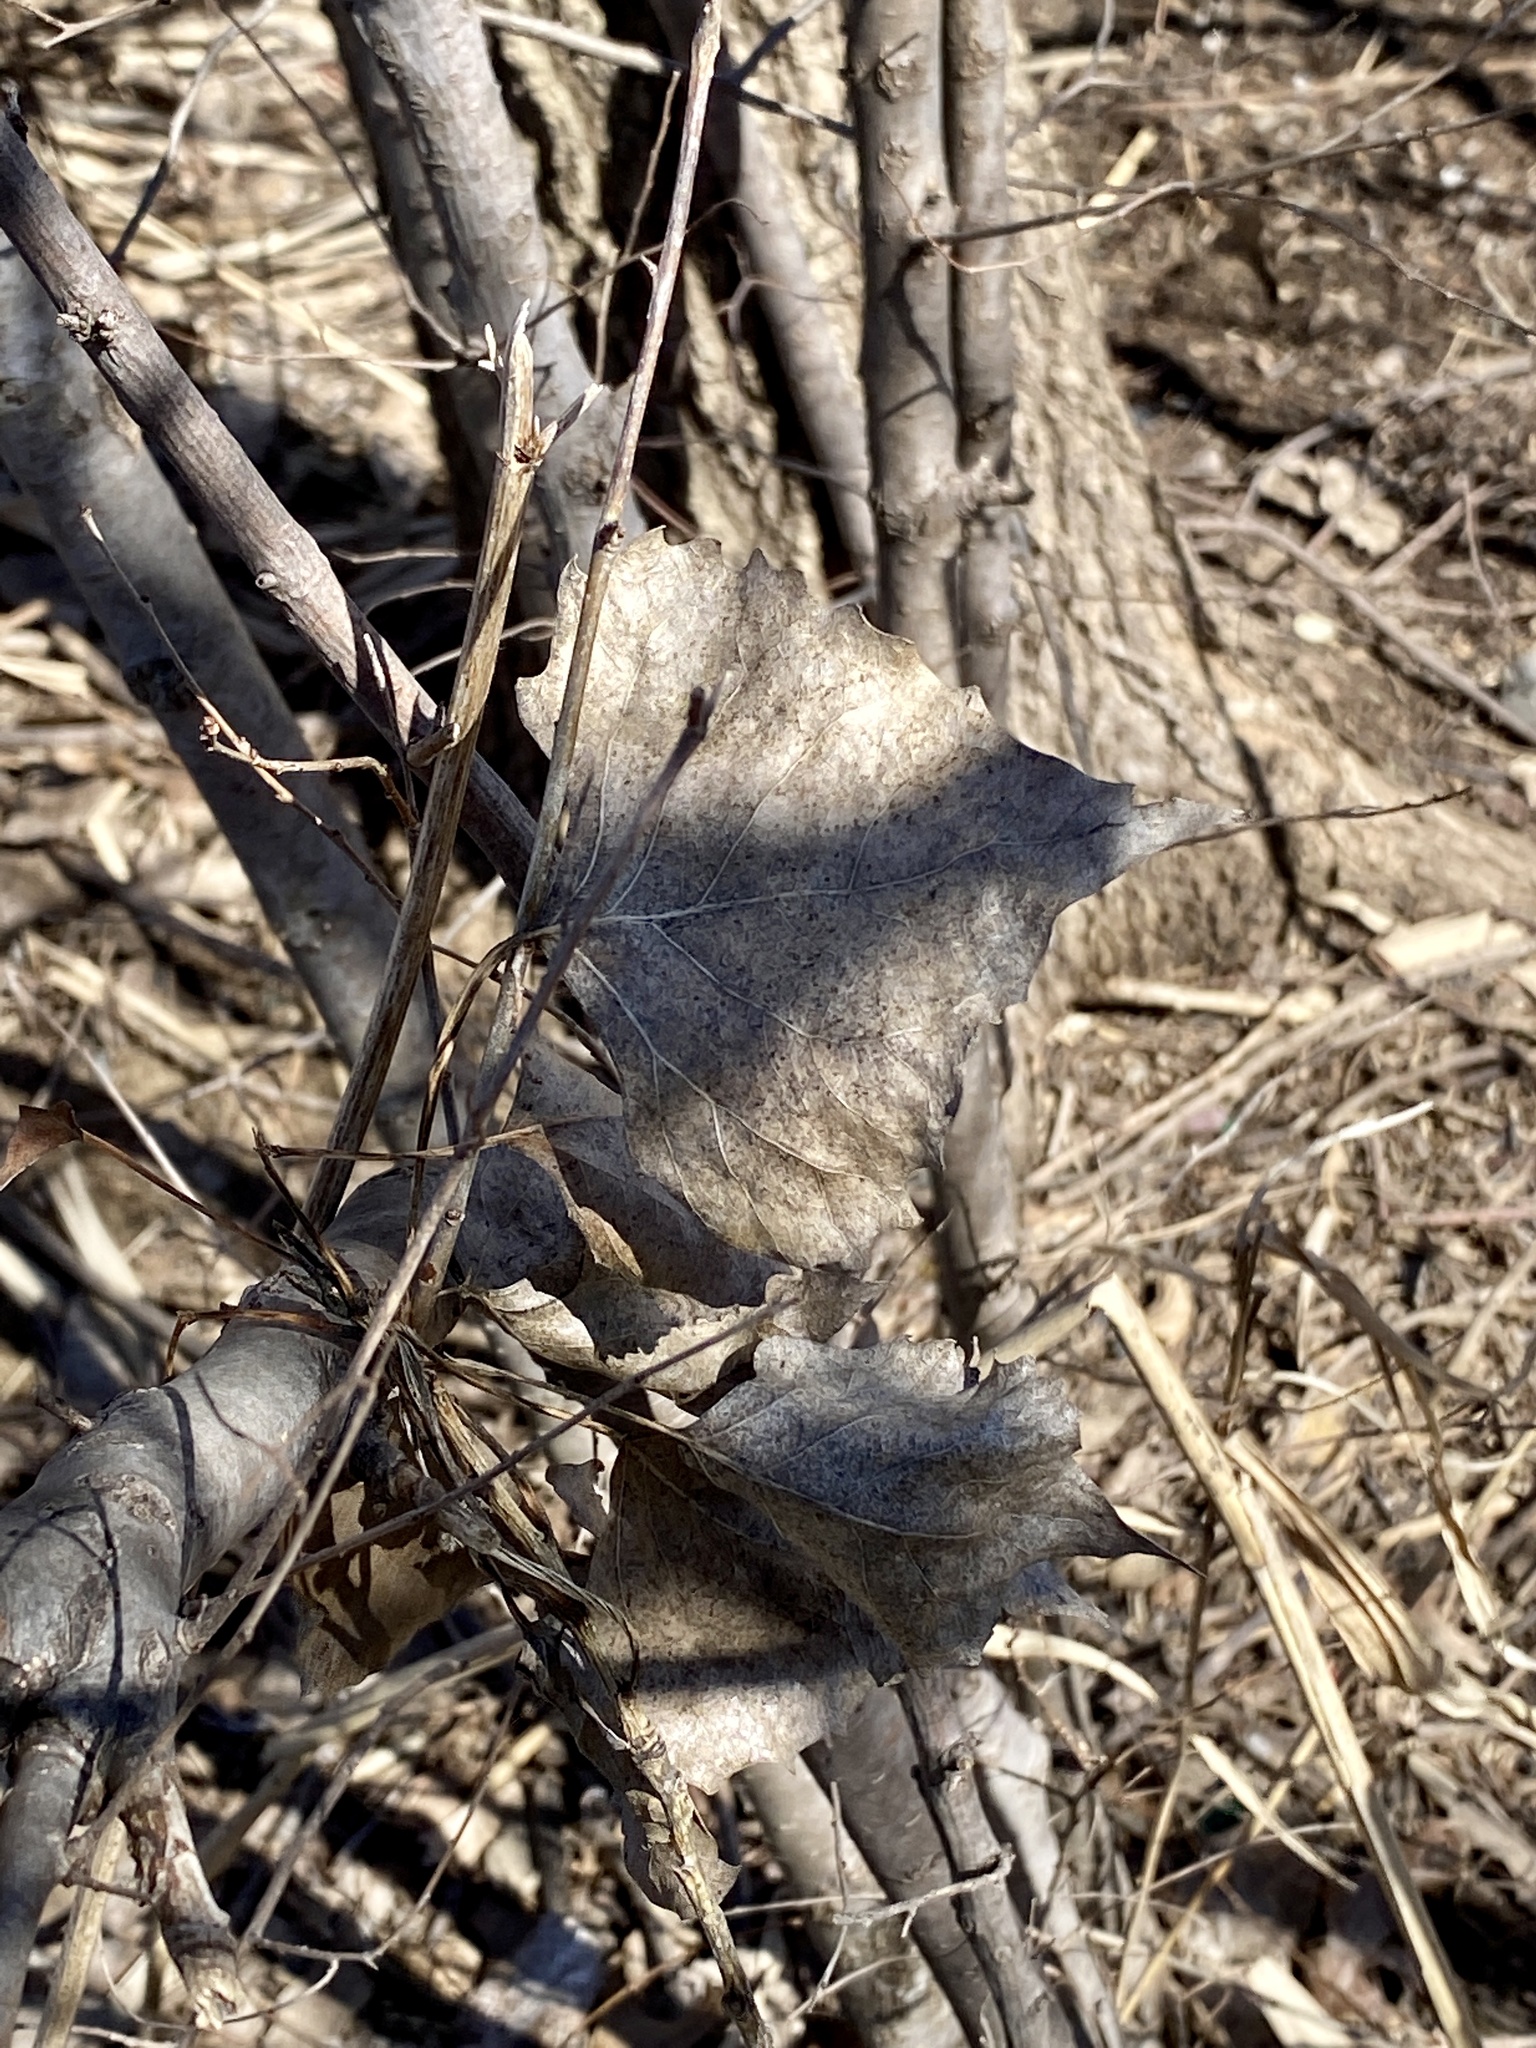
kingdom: Plantae
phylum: Tracheophyta
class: Magnoliopsida
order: Malpighiales
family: Salicaceae
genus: Populus
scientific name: Populus deltoides
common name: Eastern cottonwood
